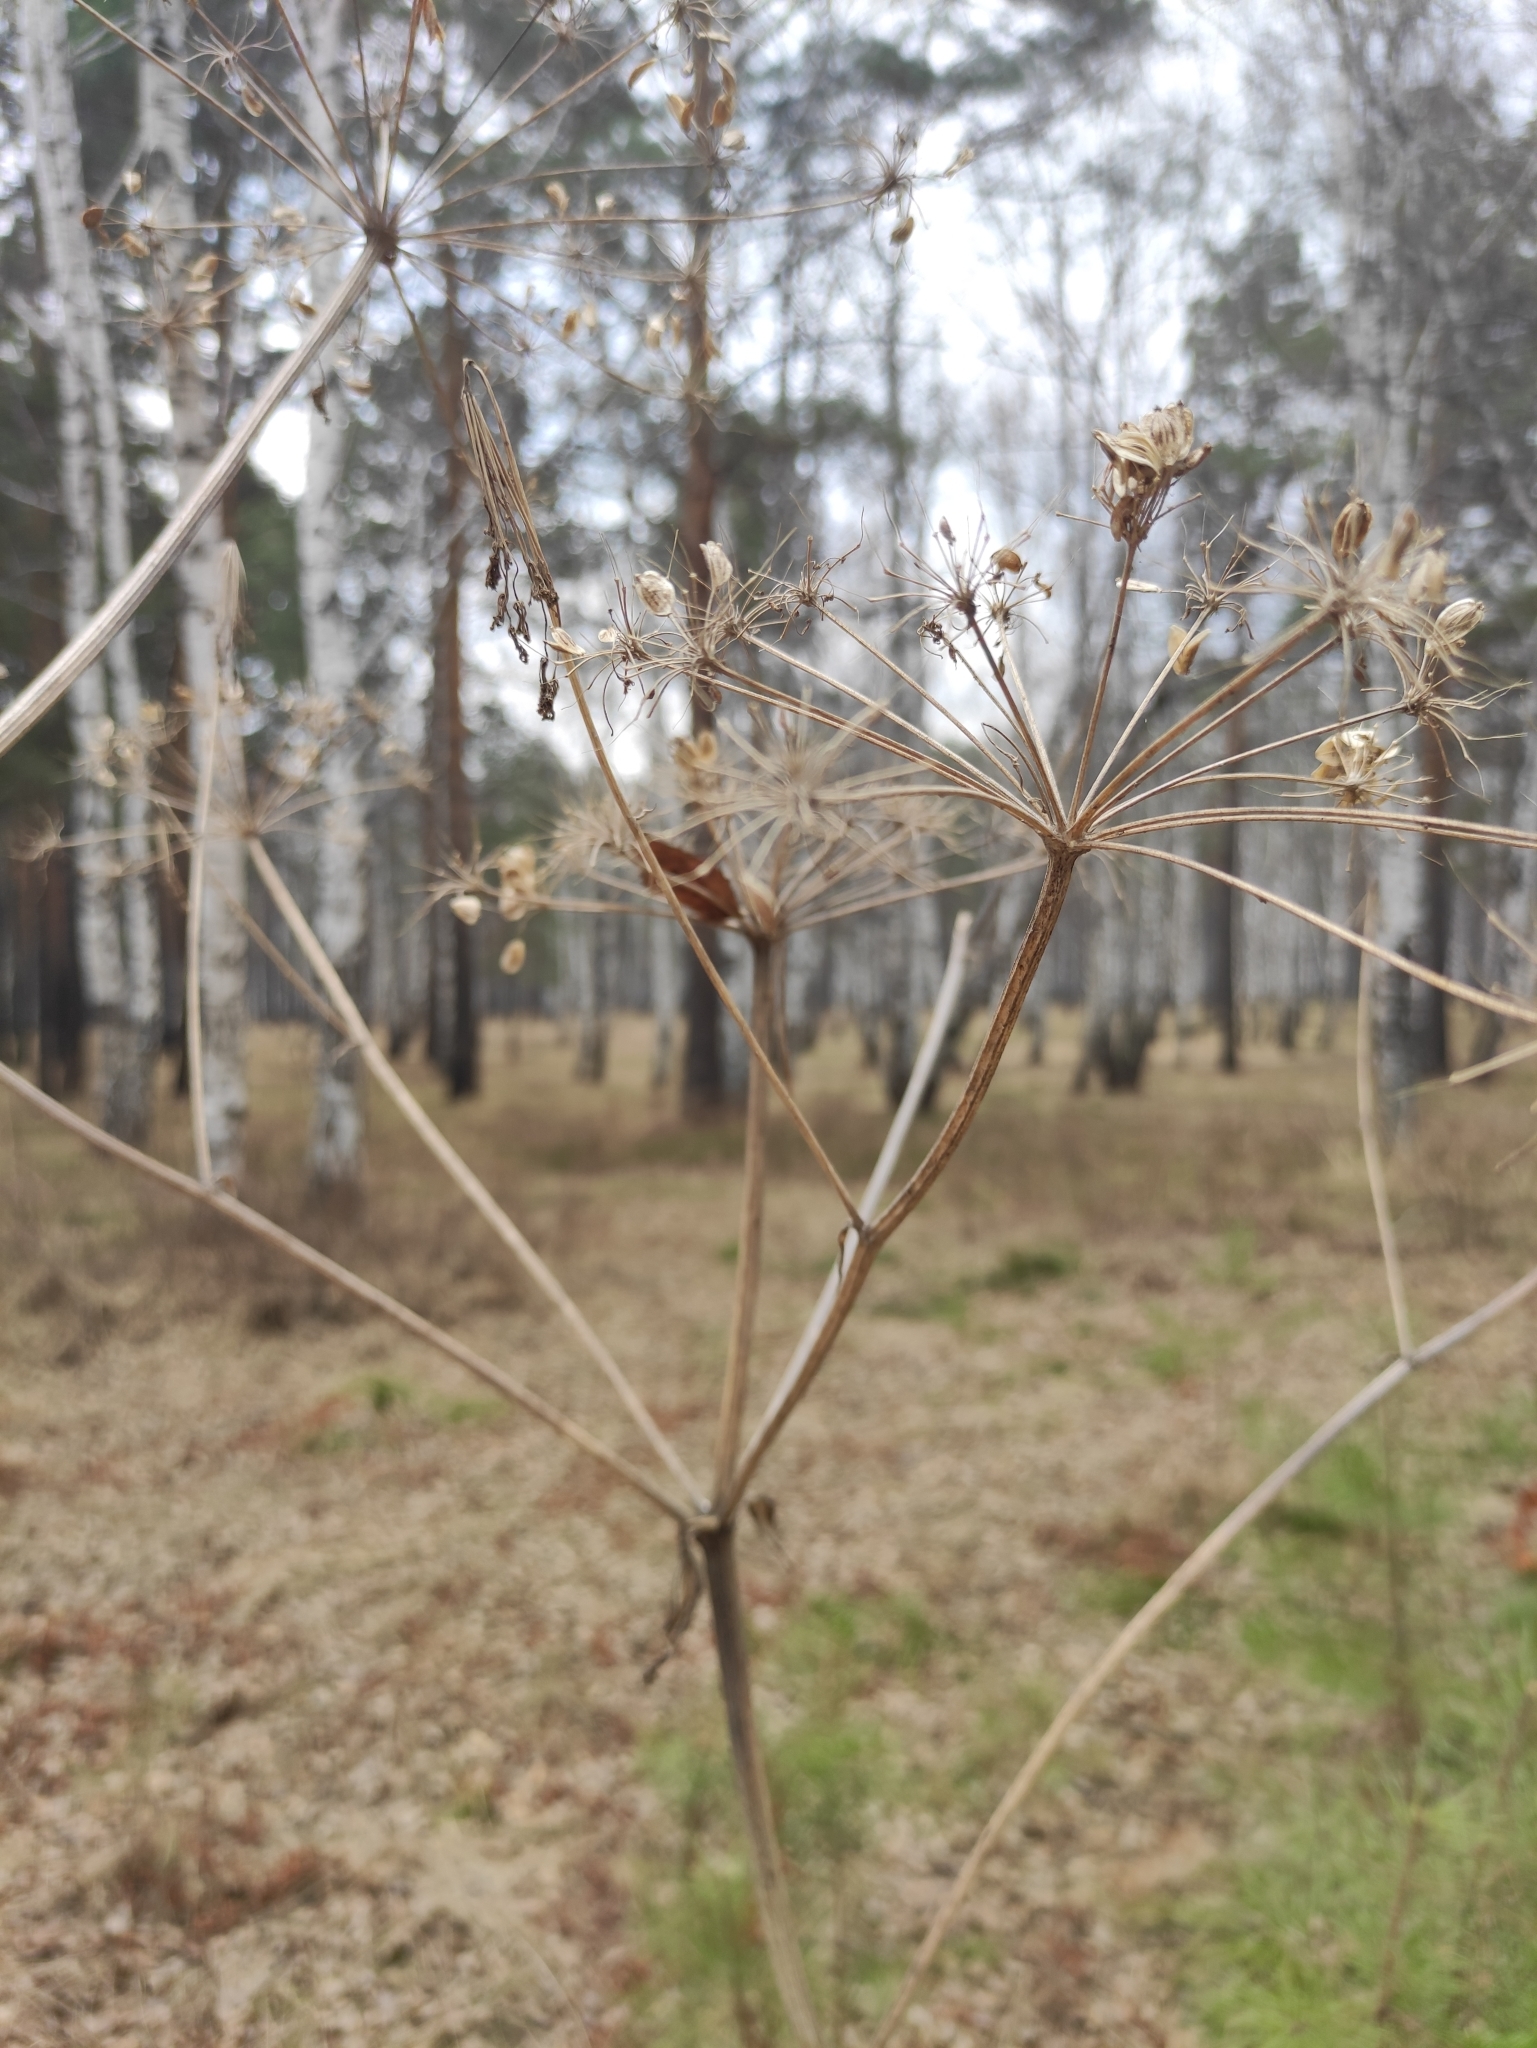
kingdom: Plantae
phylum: Tracheophyta
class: Magnoliopsida
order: Apiales
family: Apiaceae
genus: Heracleum
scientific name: Heracleum dissectum
